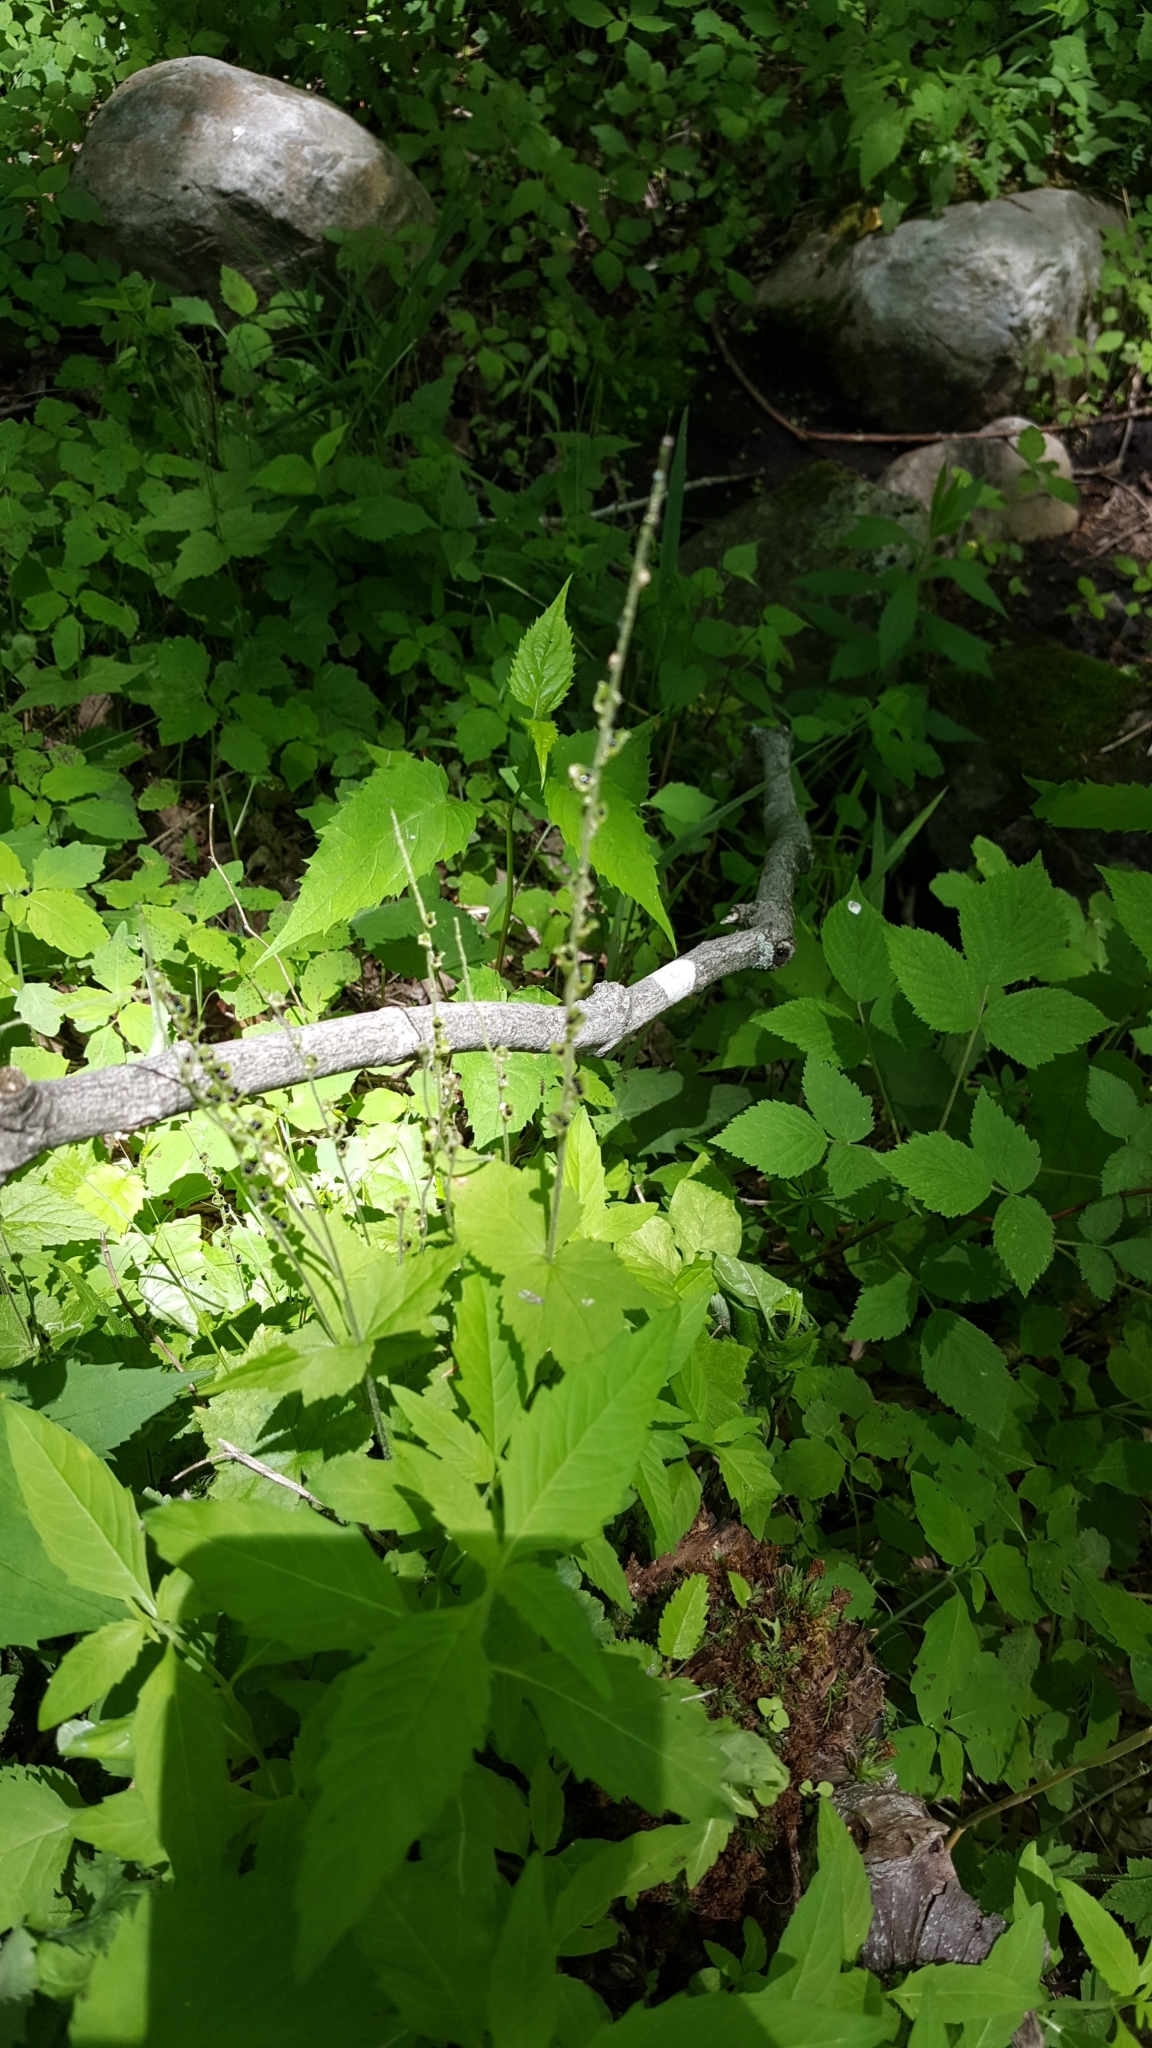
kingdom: Plantae
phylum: Tracheophyta
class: Magnoliopsida
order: Saxifragales
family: Saxifragaceae
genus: Mitella
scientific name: Mitella diphylla
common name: Coolwort
